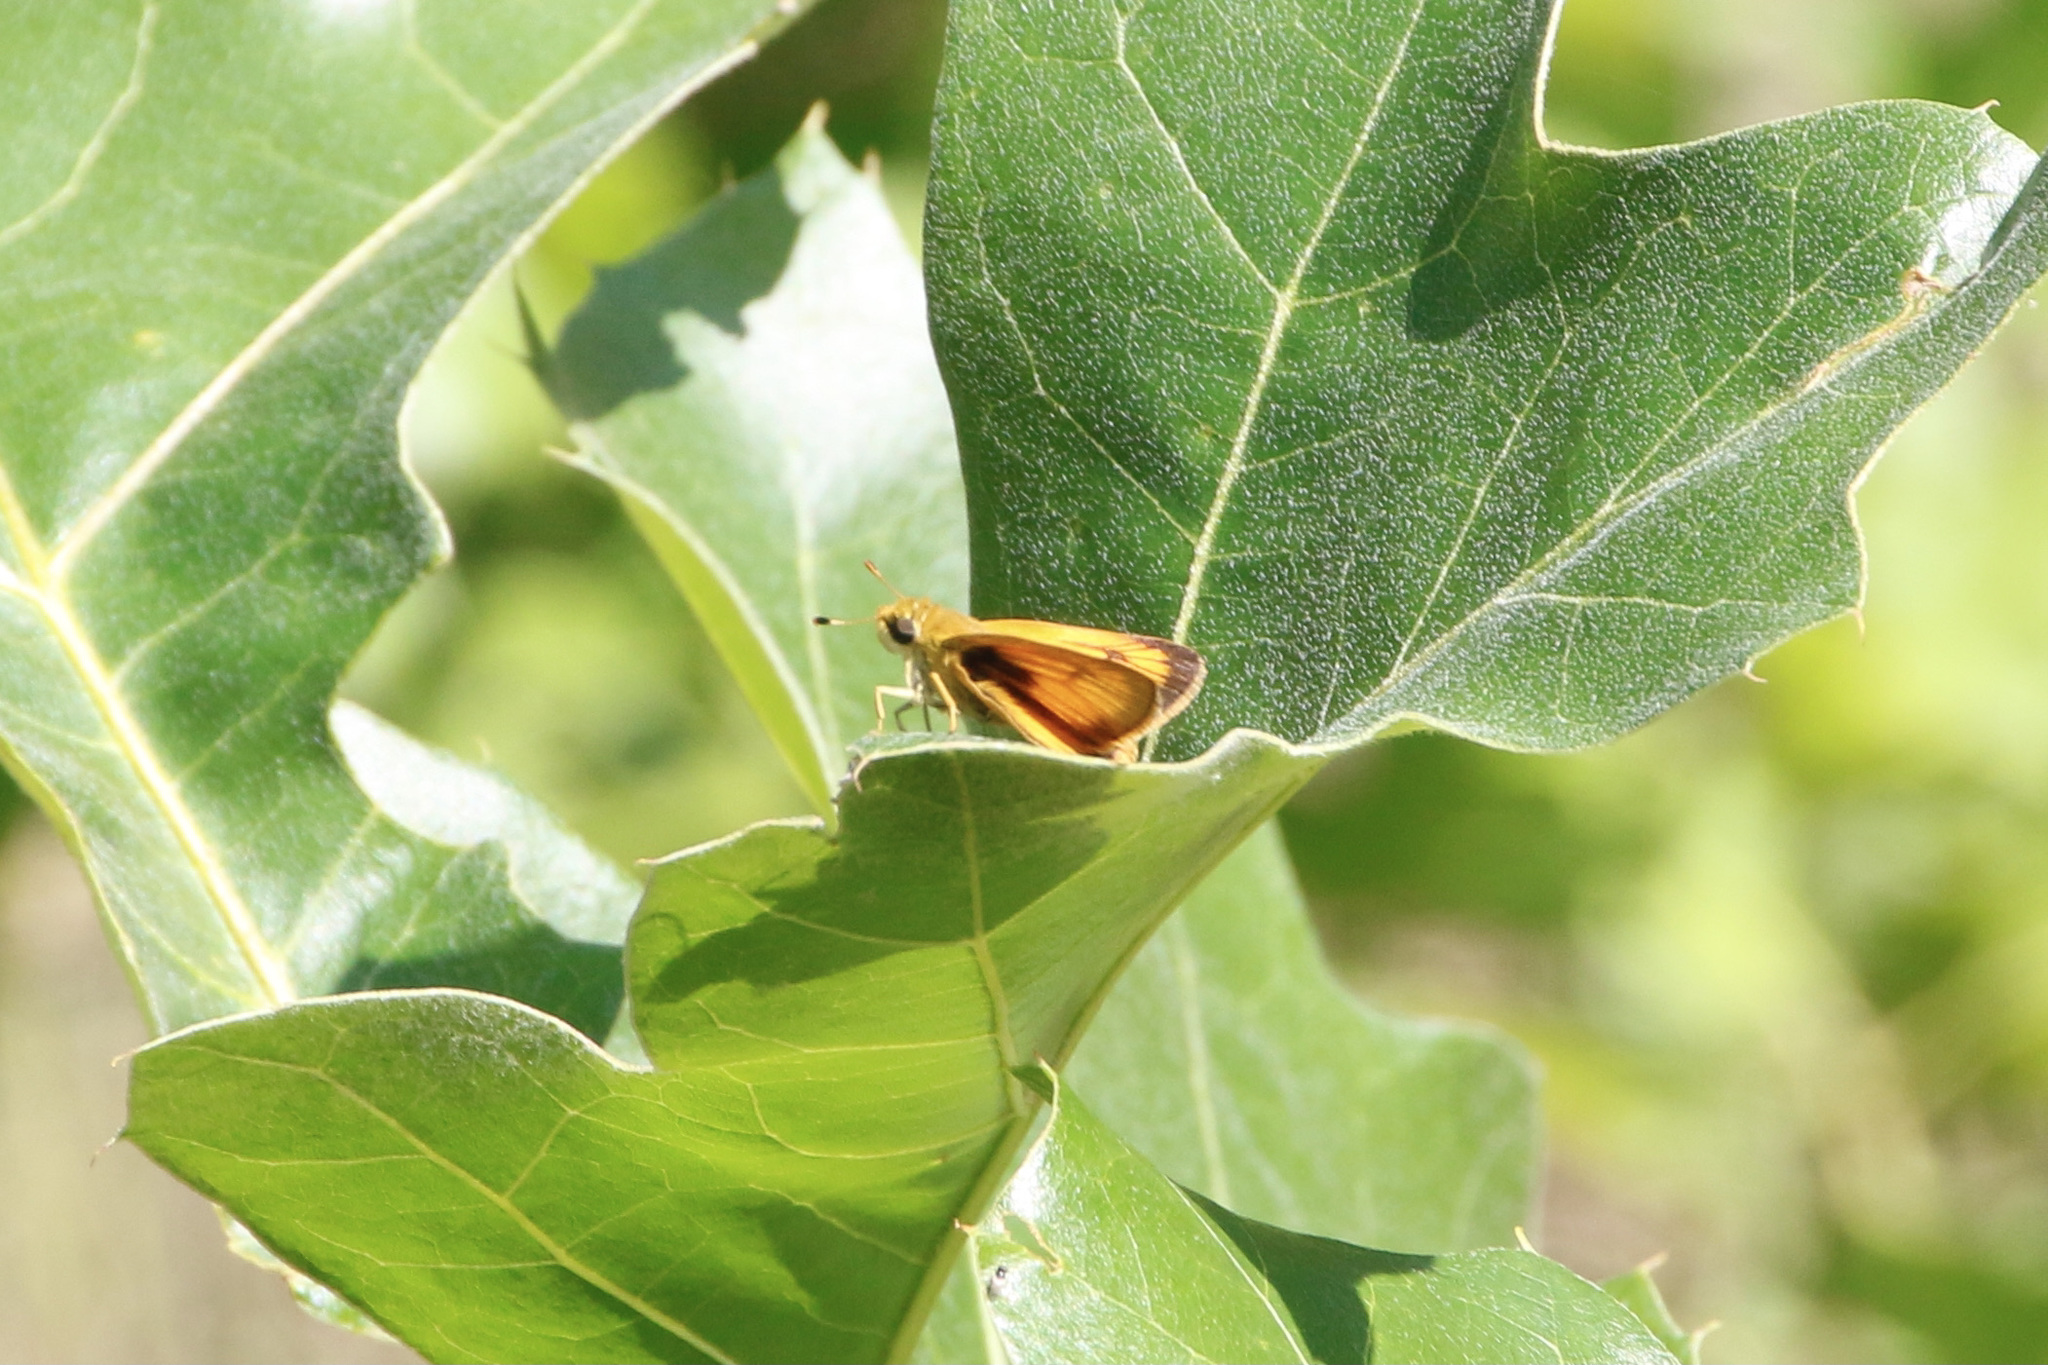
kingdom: Animalia
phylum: Arthropoda
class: Insecta
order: Lepidoptera
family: Hesperiidae
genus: Atrytone
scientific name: Atrytone delaware
